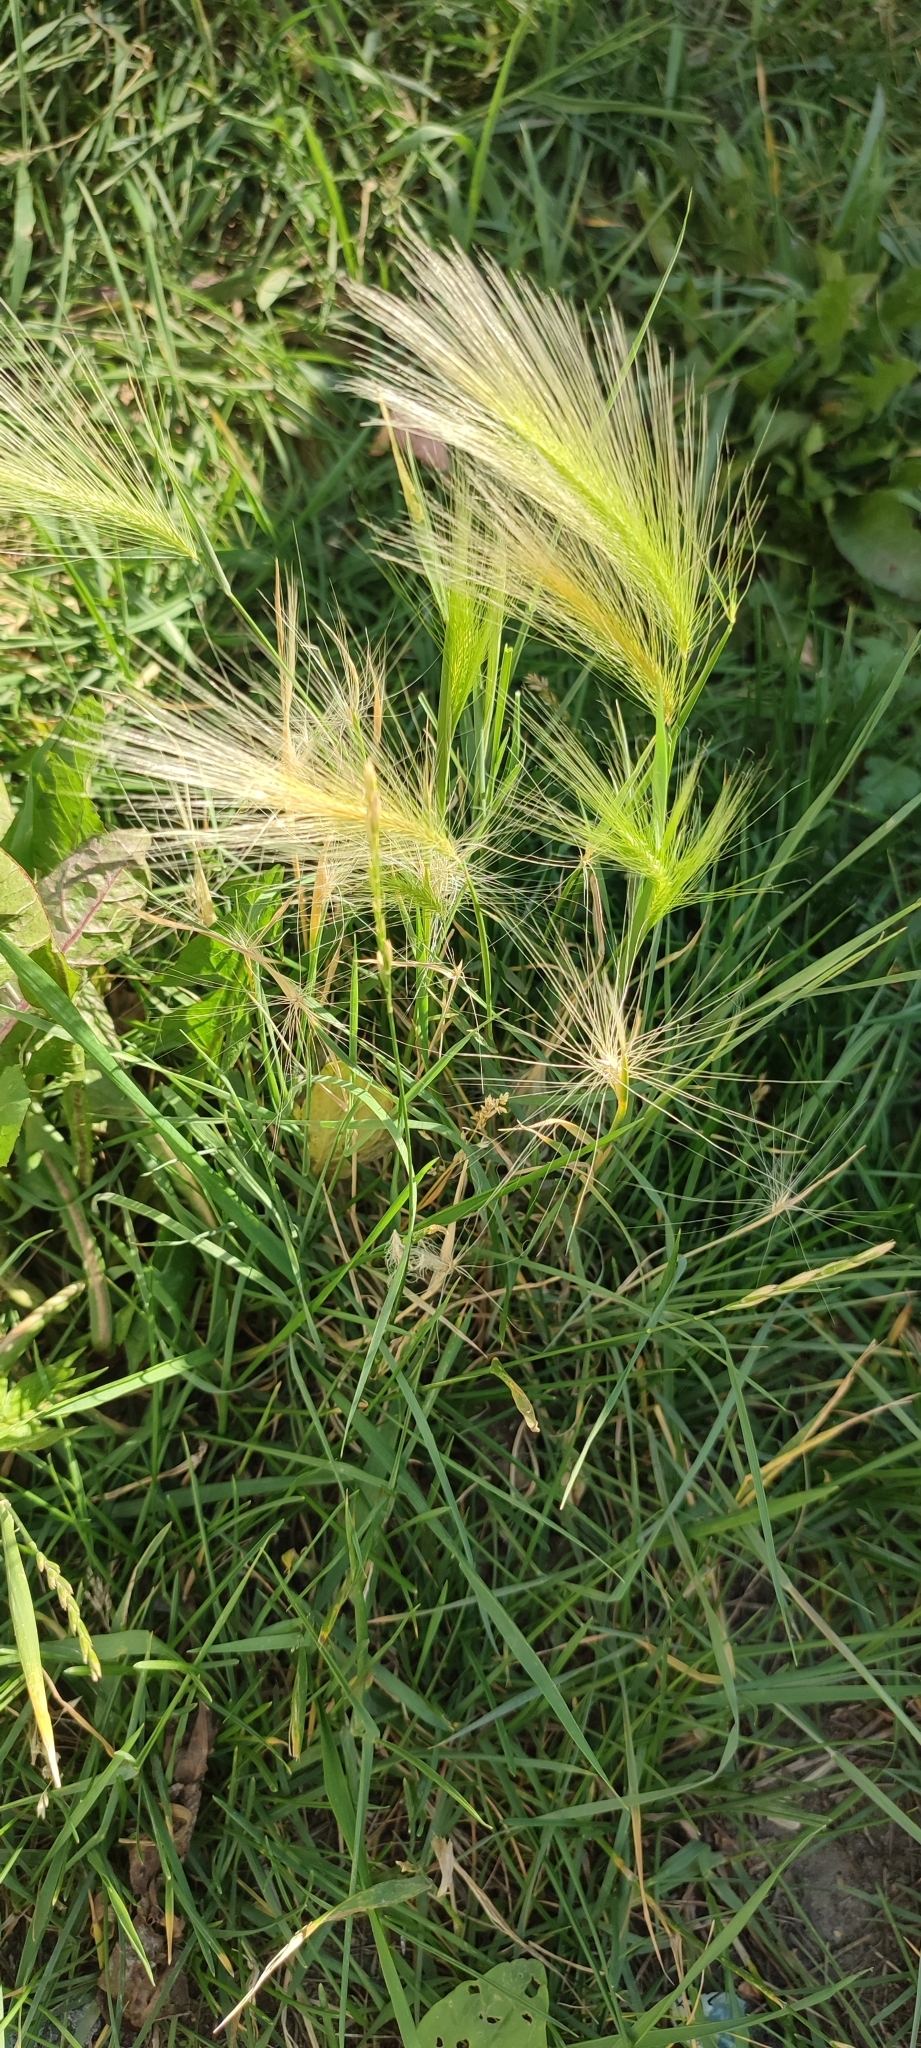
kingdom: Plantae
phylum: Tracheophyta
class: Liliopsida
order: Poales
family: Poaceae
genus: Hordeum
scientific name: Hordeum jubatum
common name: Foxtail barley
